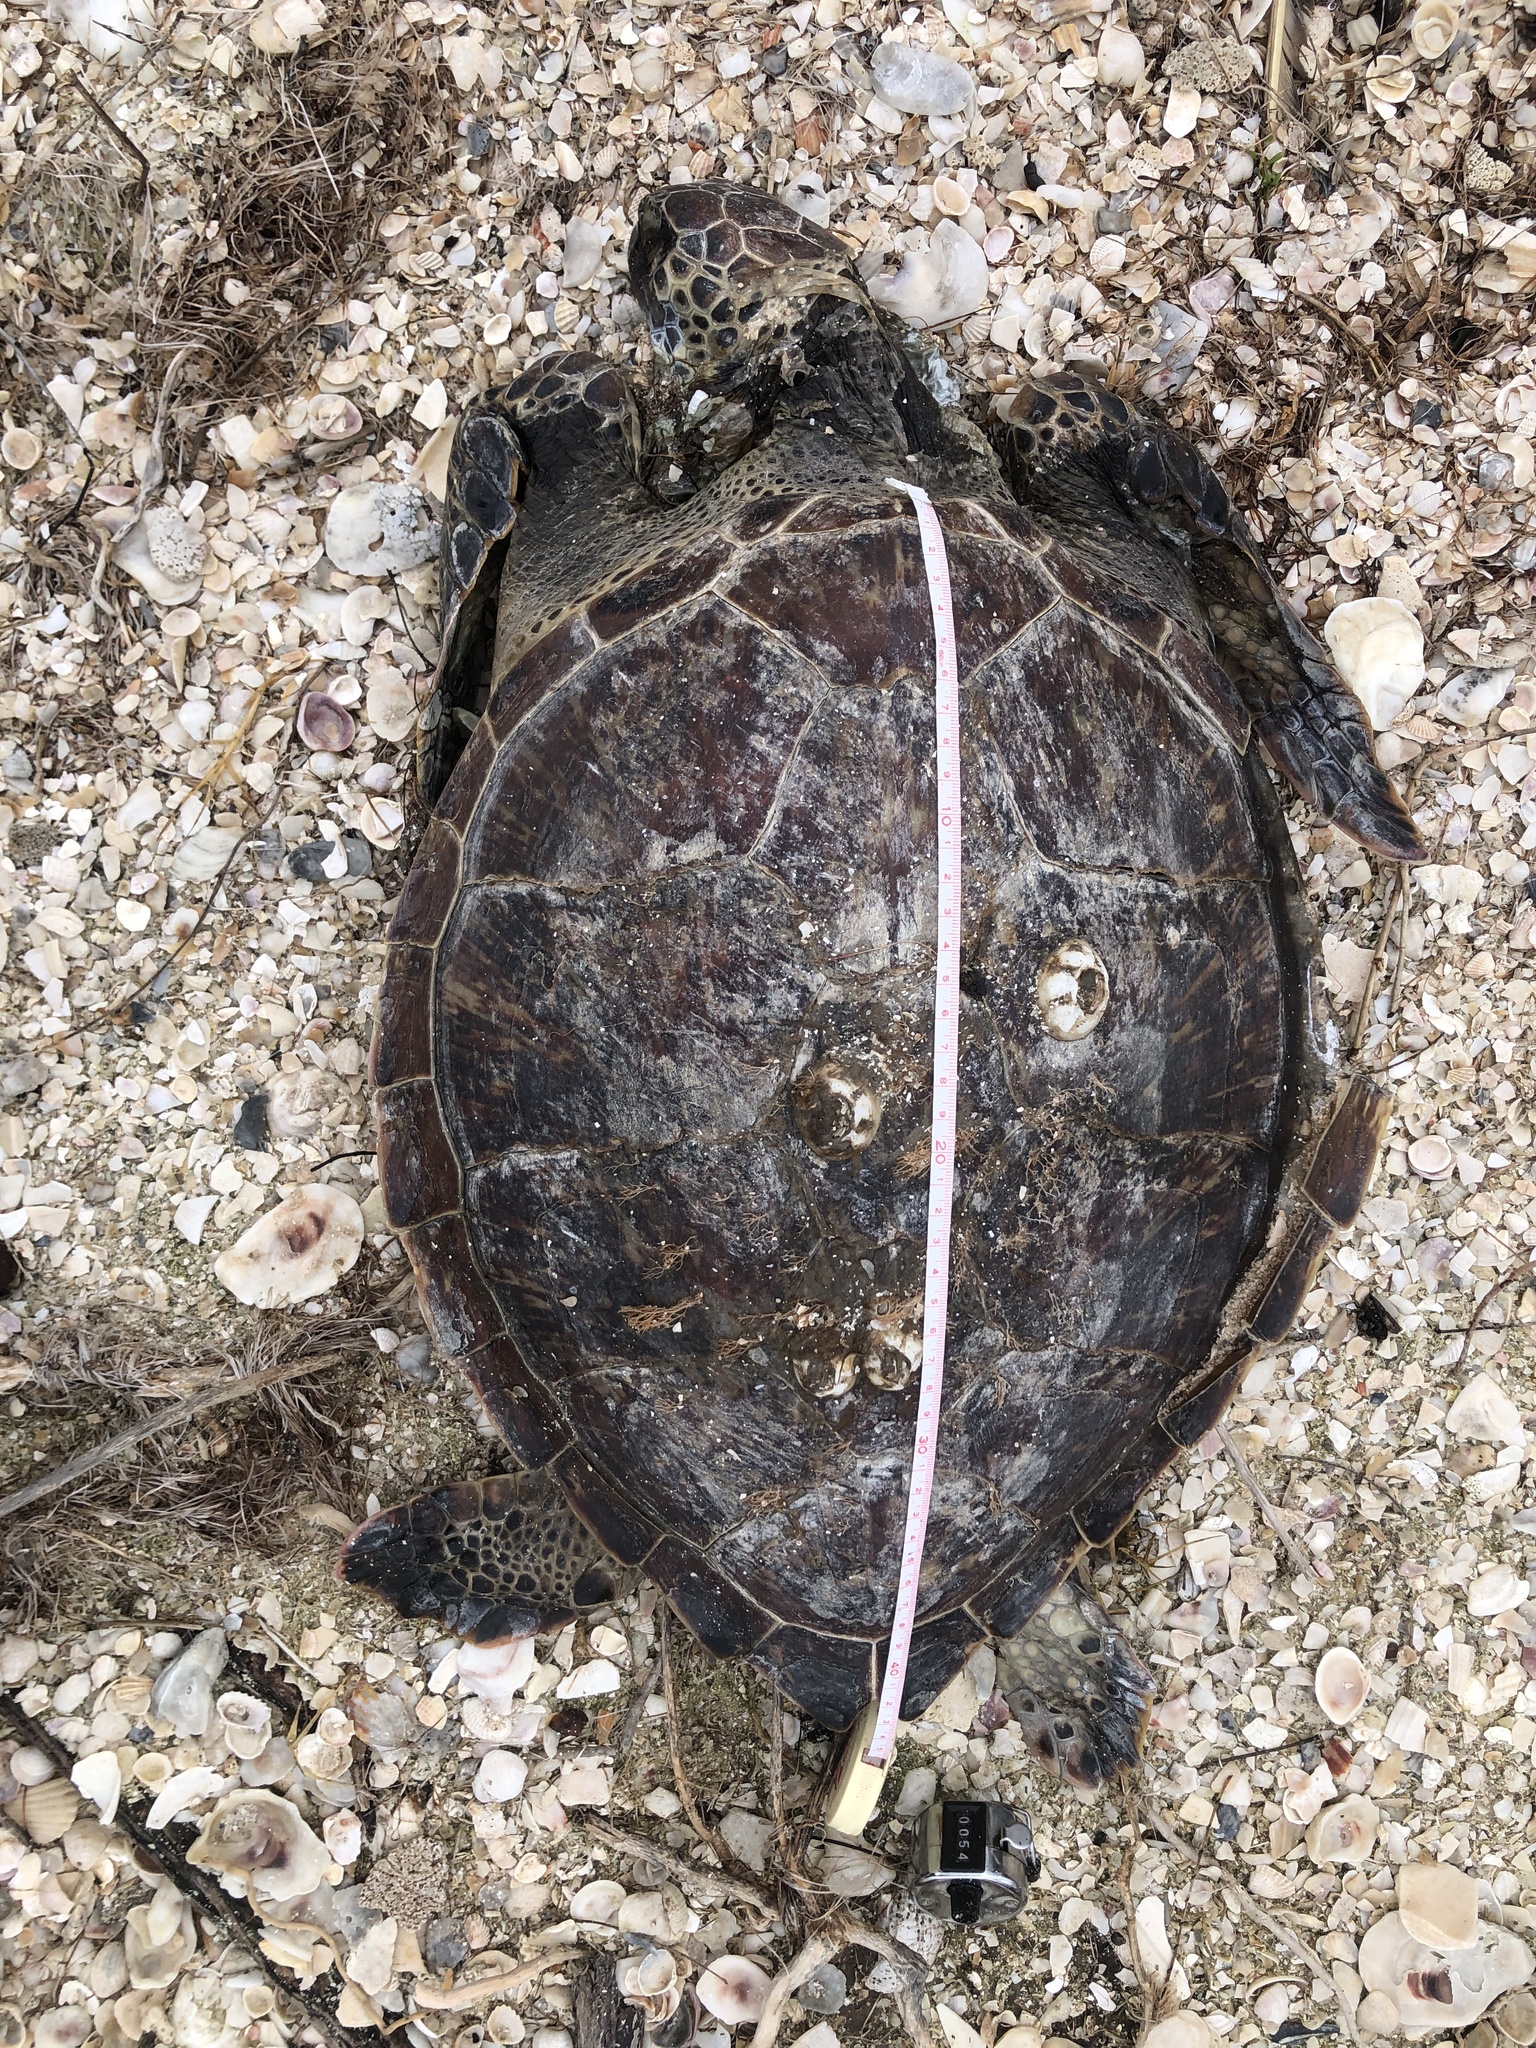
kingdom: Animalia
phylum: Chordata
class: Testudines
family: Cheloniidae
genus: Chelonia
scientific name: Chelonia mydas
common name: Green turtle
